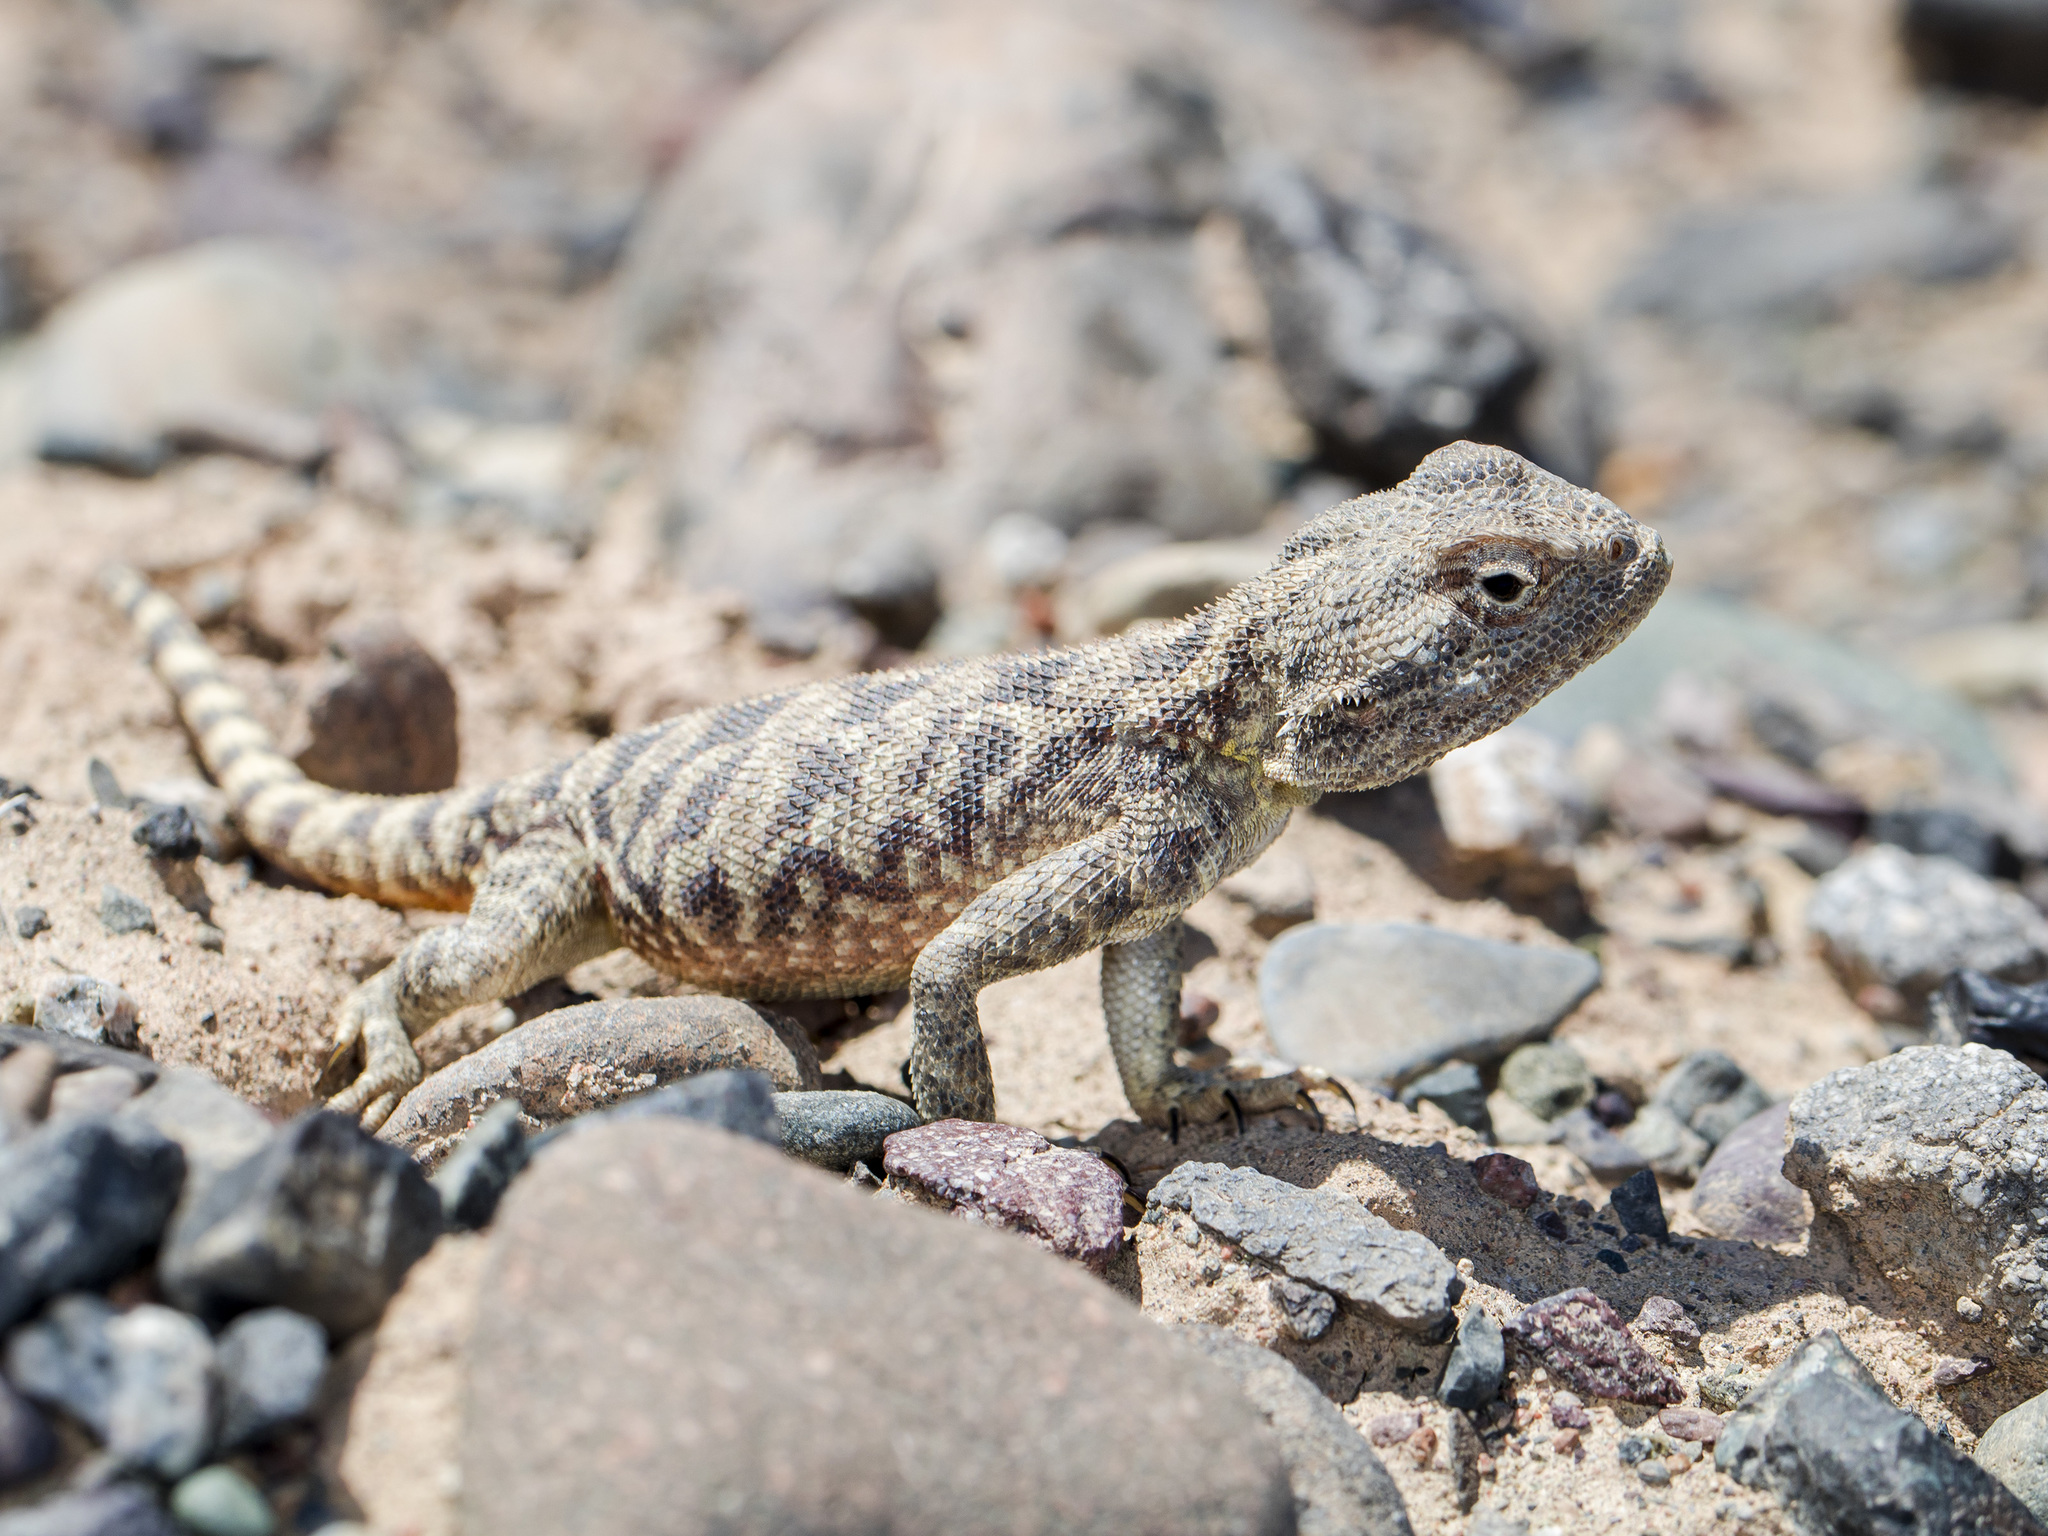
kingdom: Animalia
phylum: Chordata
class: Squamata
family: Agamidae
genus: Trapelus
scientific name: Trapelus sanguinolentus
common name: Steppe agama
